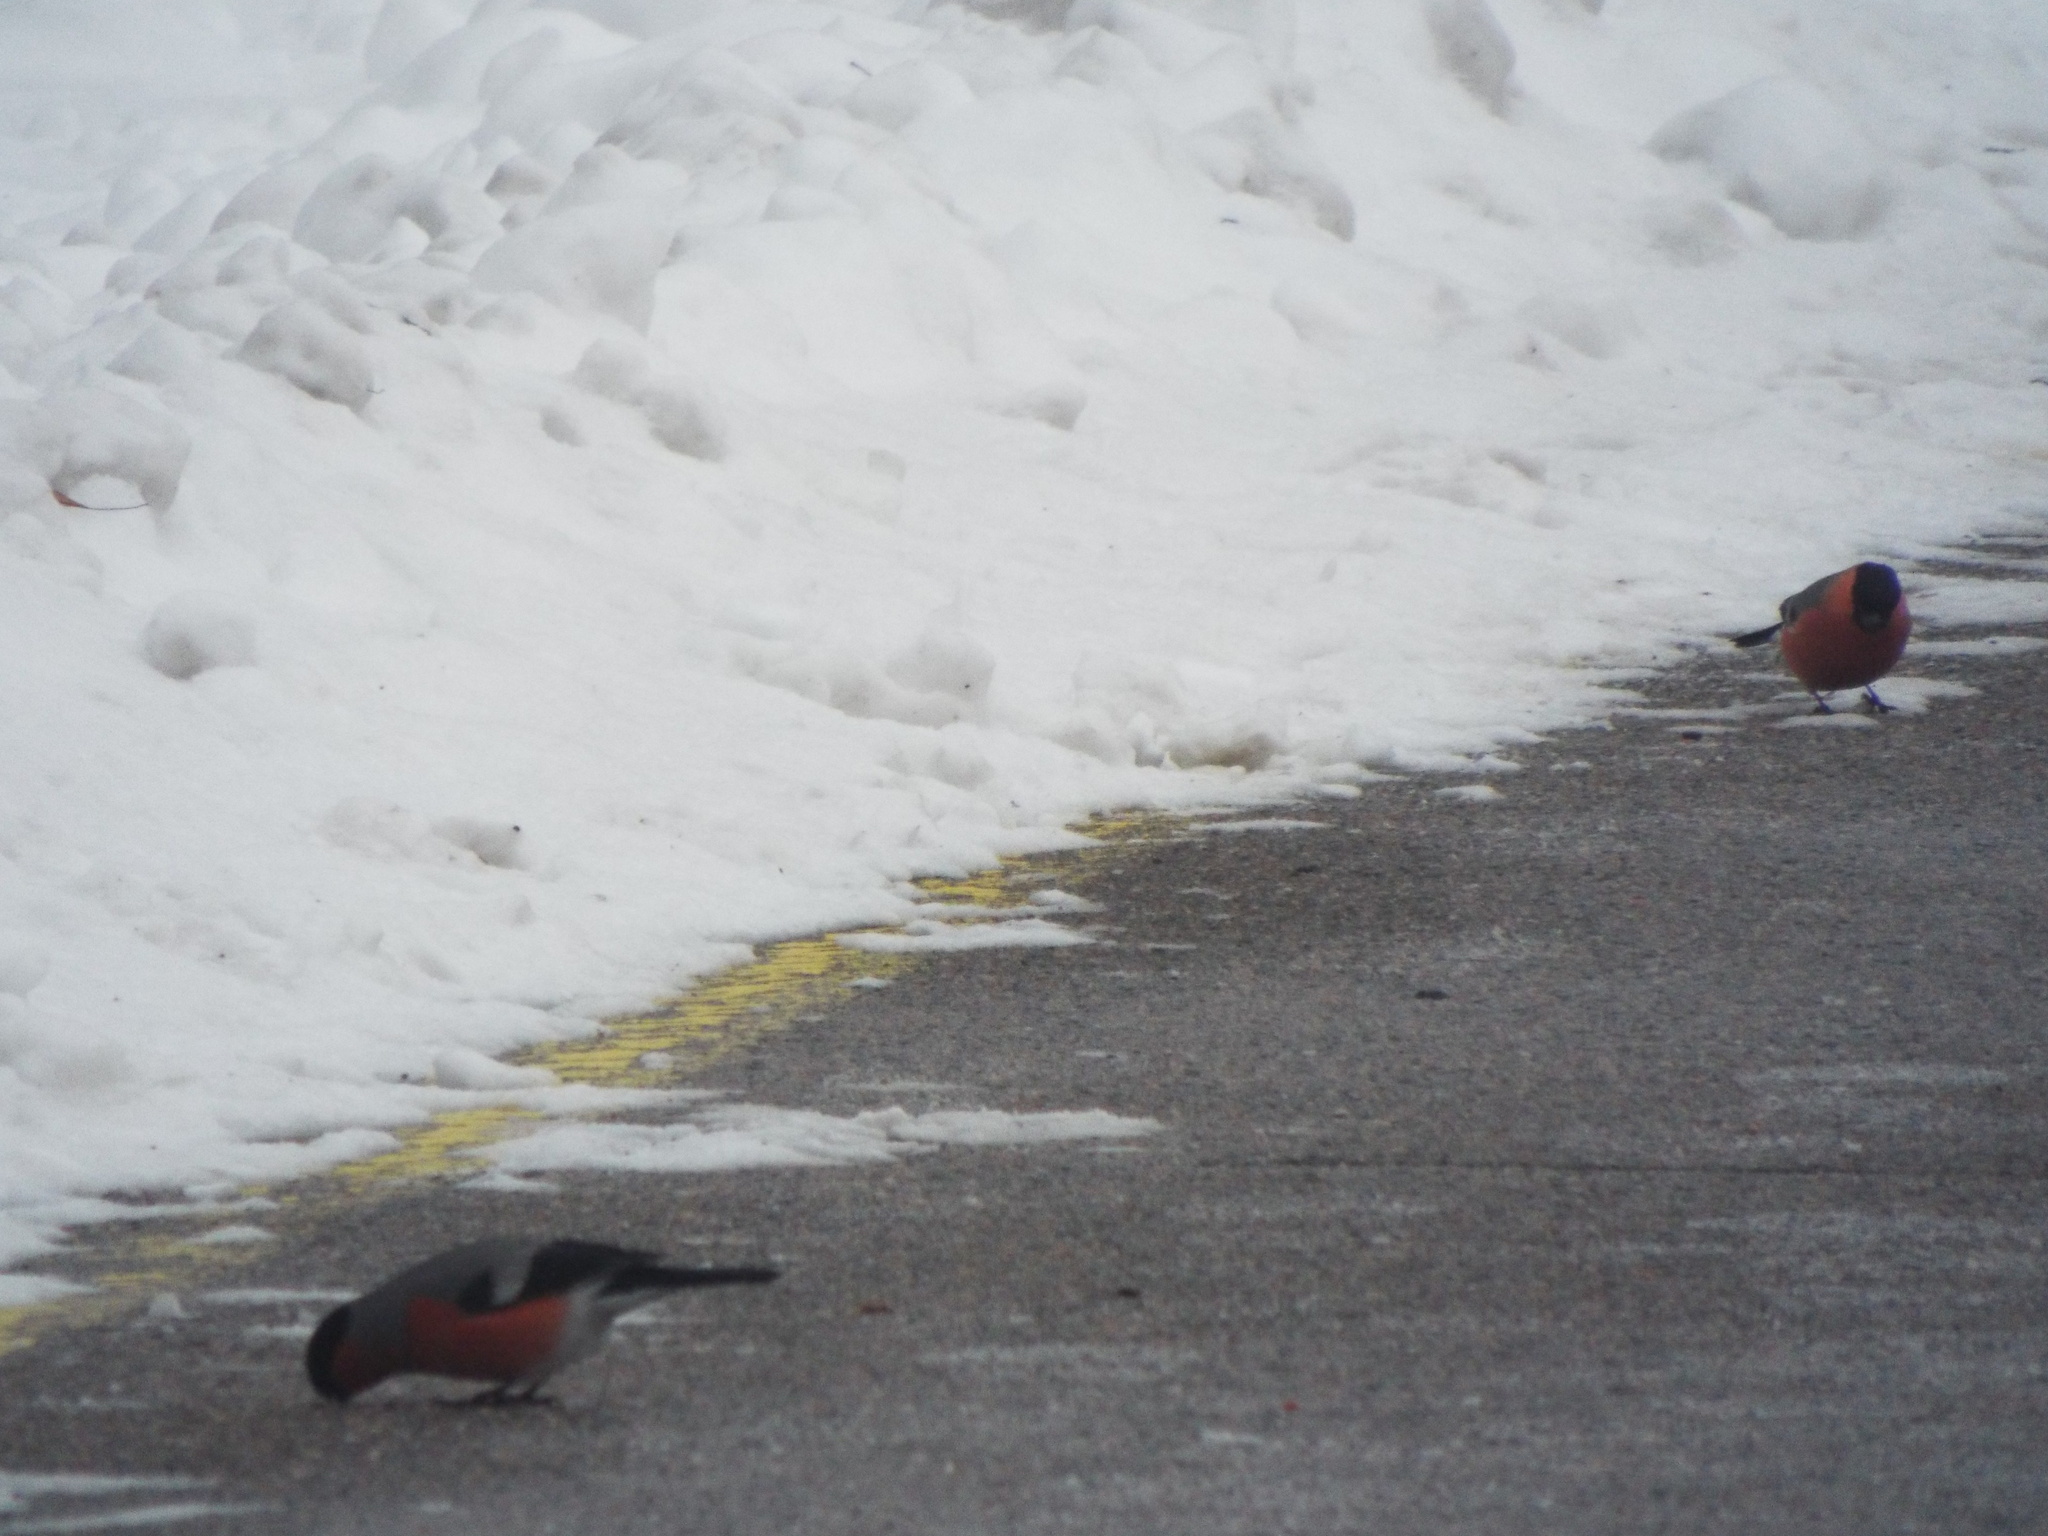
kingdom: Animalia
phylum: Chordata
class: Aves
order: Passeriformes
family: Fringillidae
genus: Pyrrhula
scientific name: Pyrrhula pyrrhula
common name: Eurasian bullfinch
